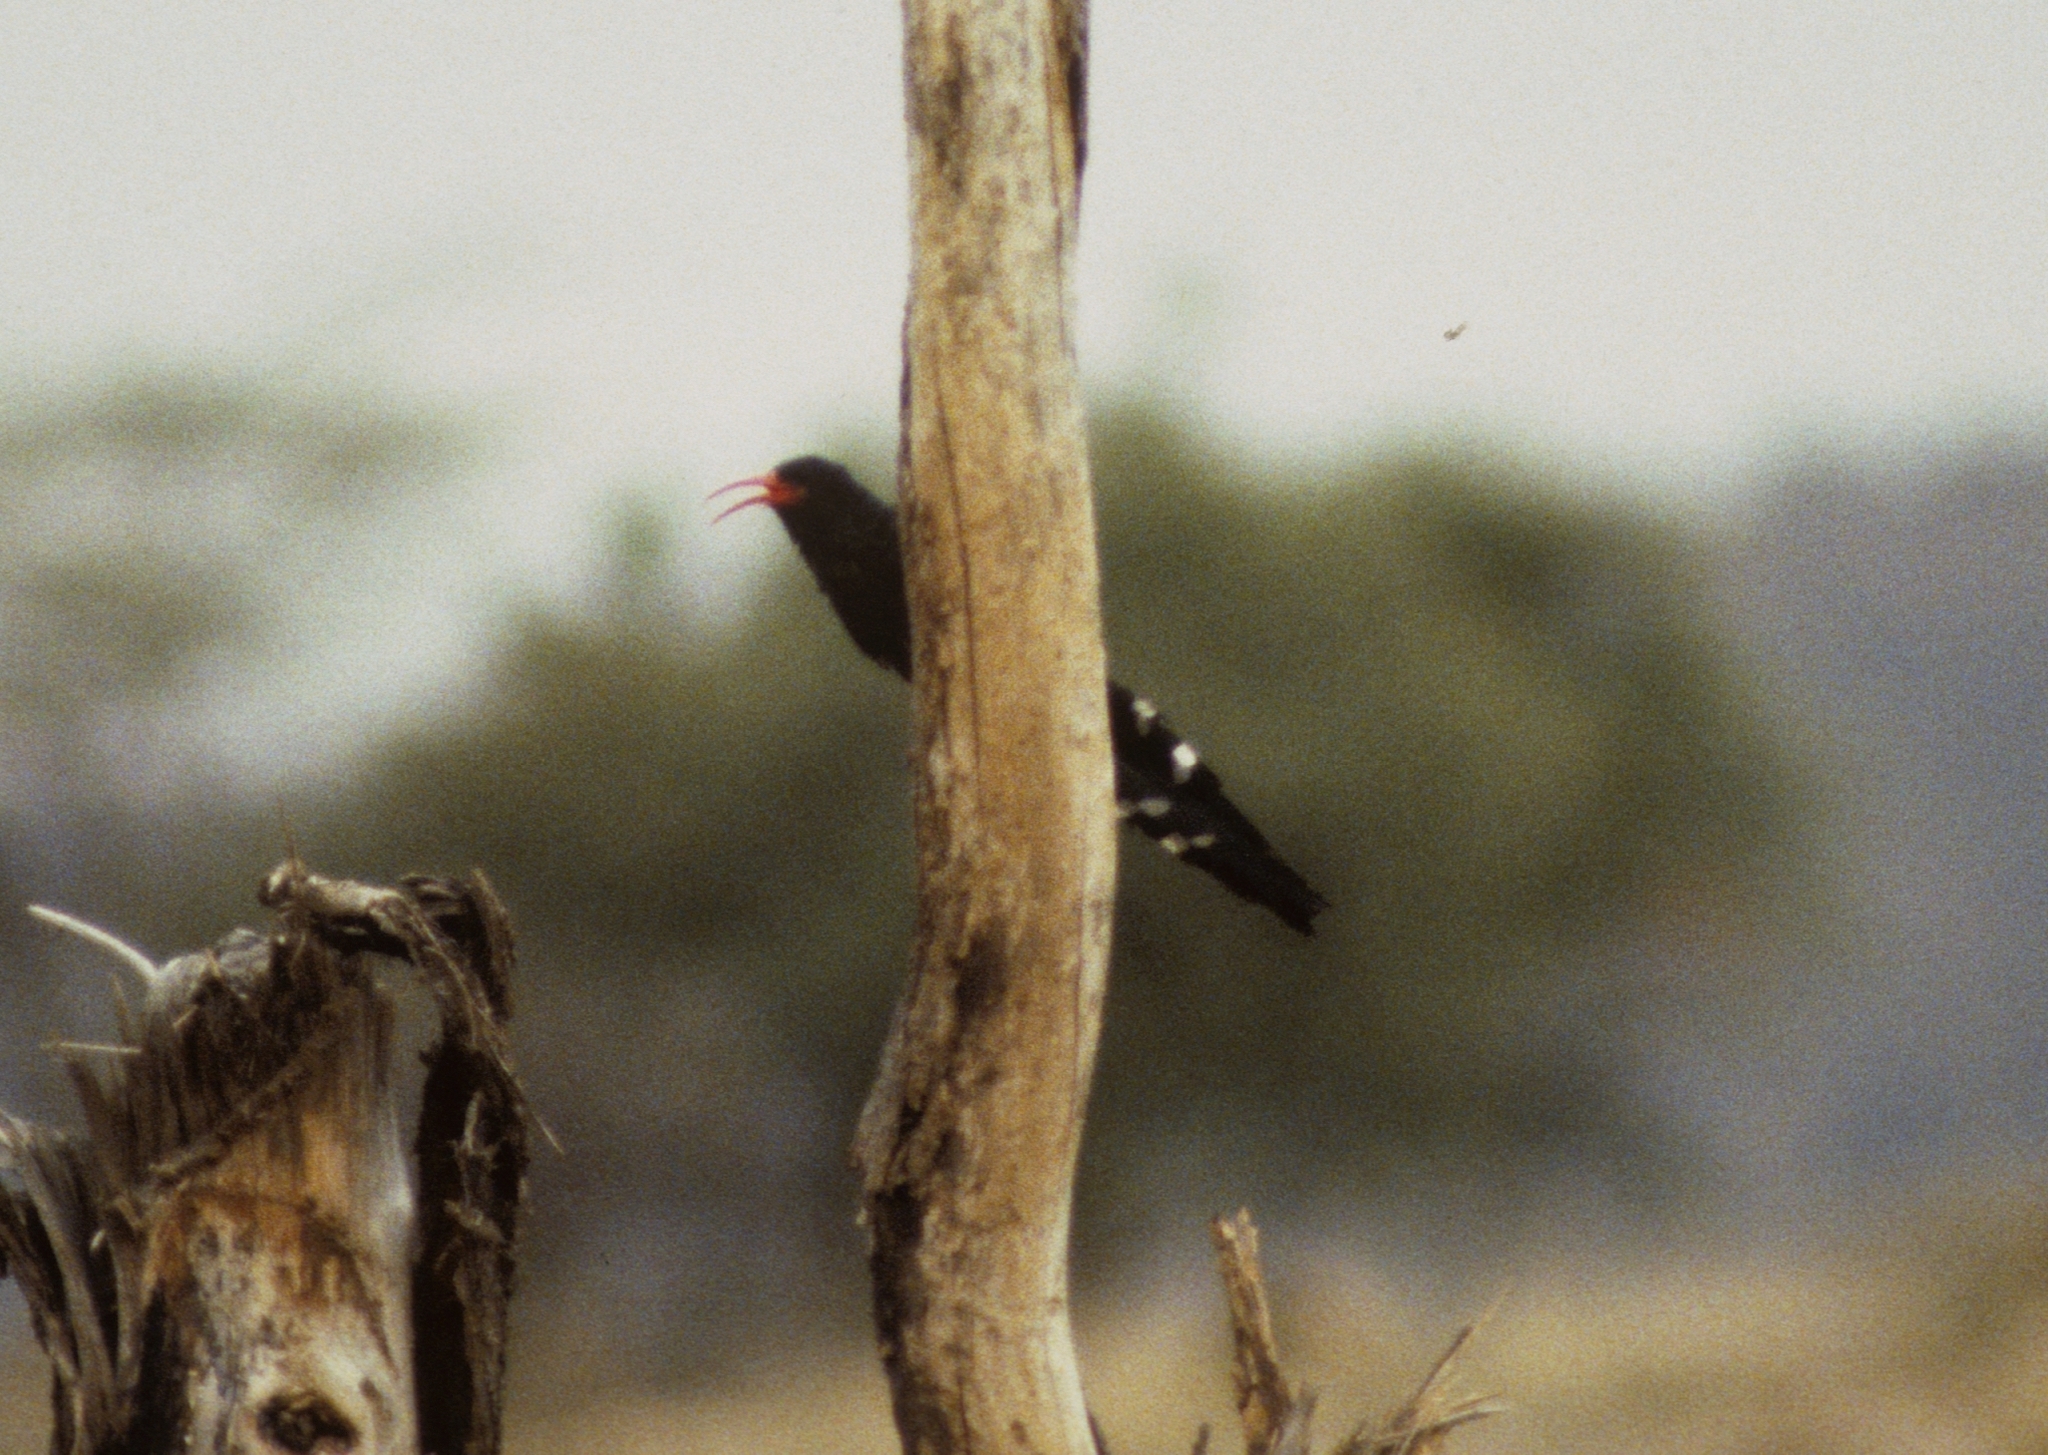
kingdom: Animalia
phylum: Chordata
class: Aves
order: Bucerotiformes
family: Phoeniculidae
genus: Phoeniculus
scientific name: Phoeniculus purpureus
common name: Green woodhoopoe
